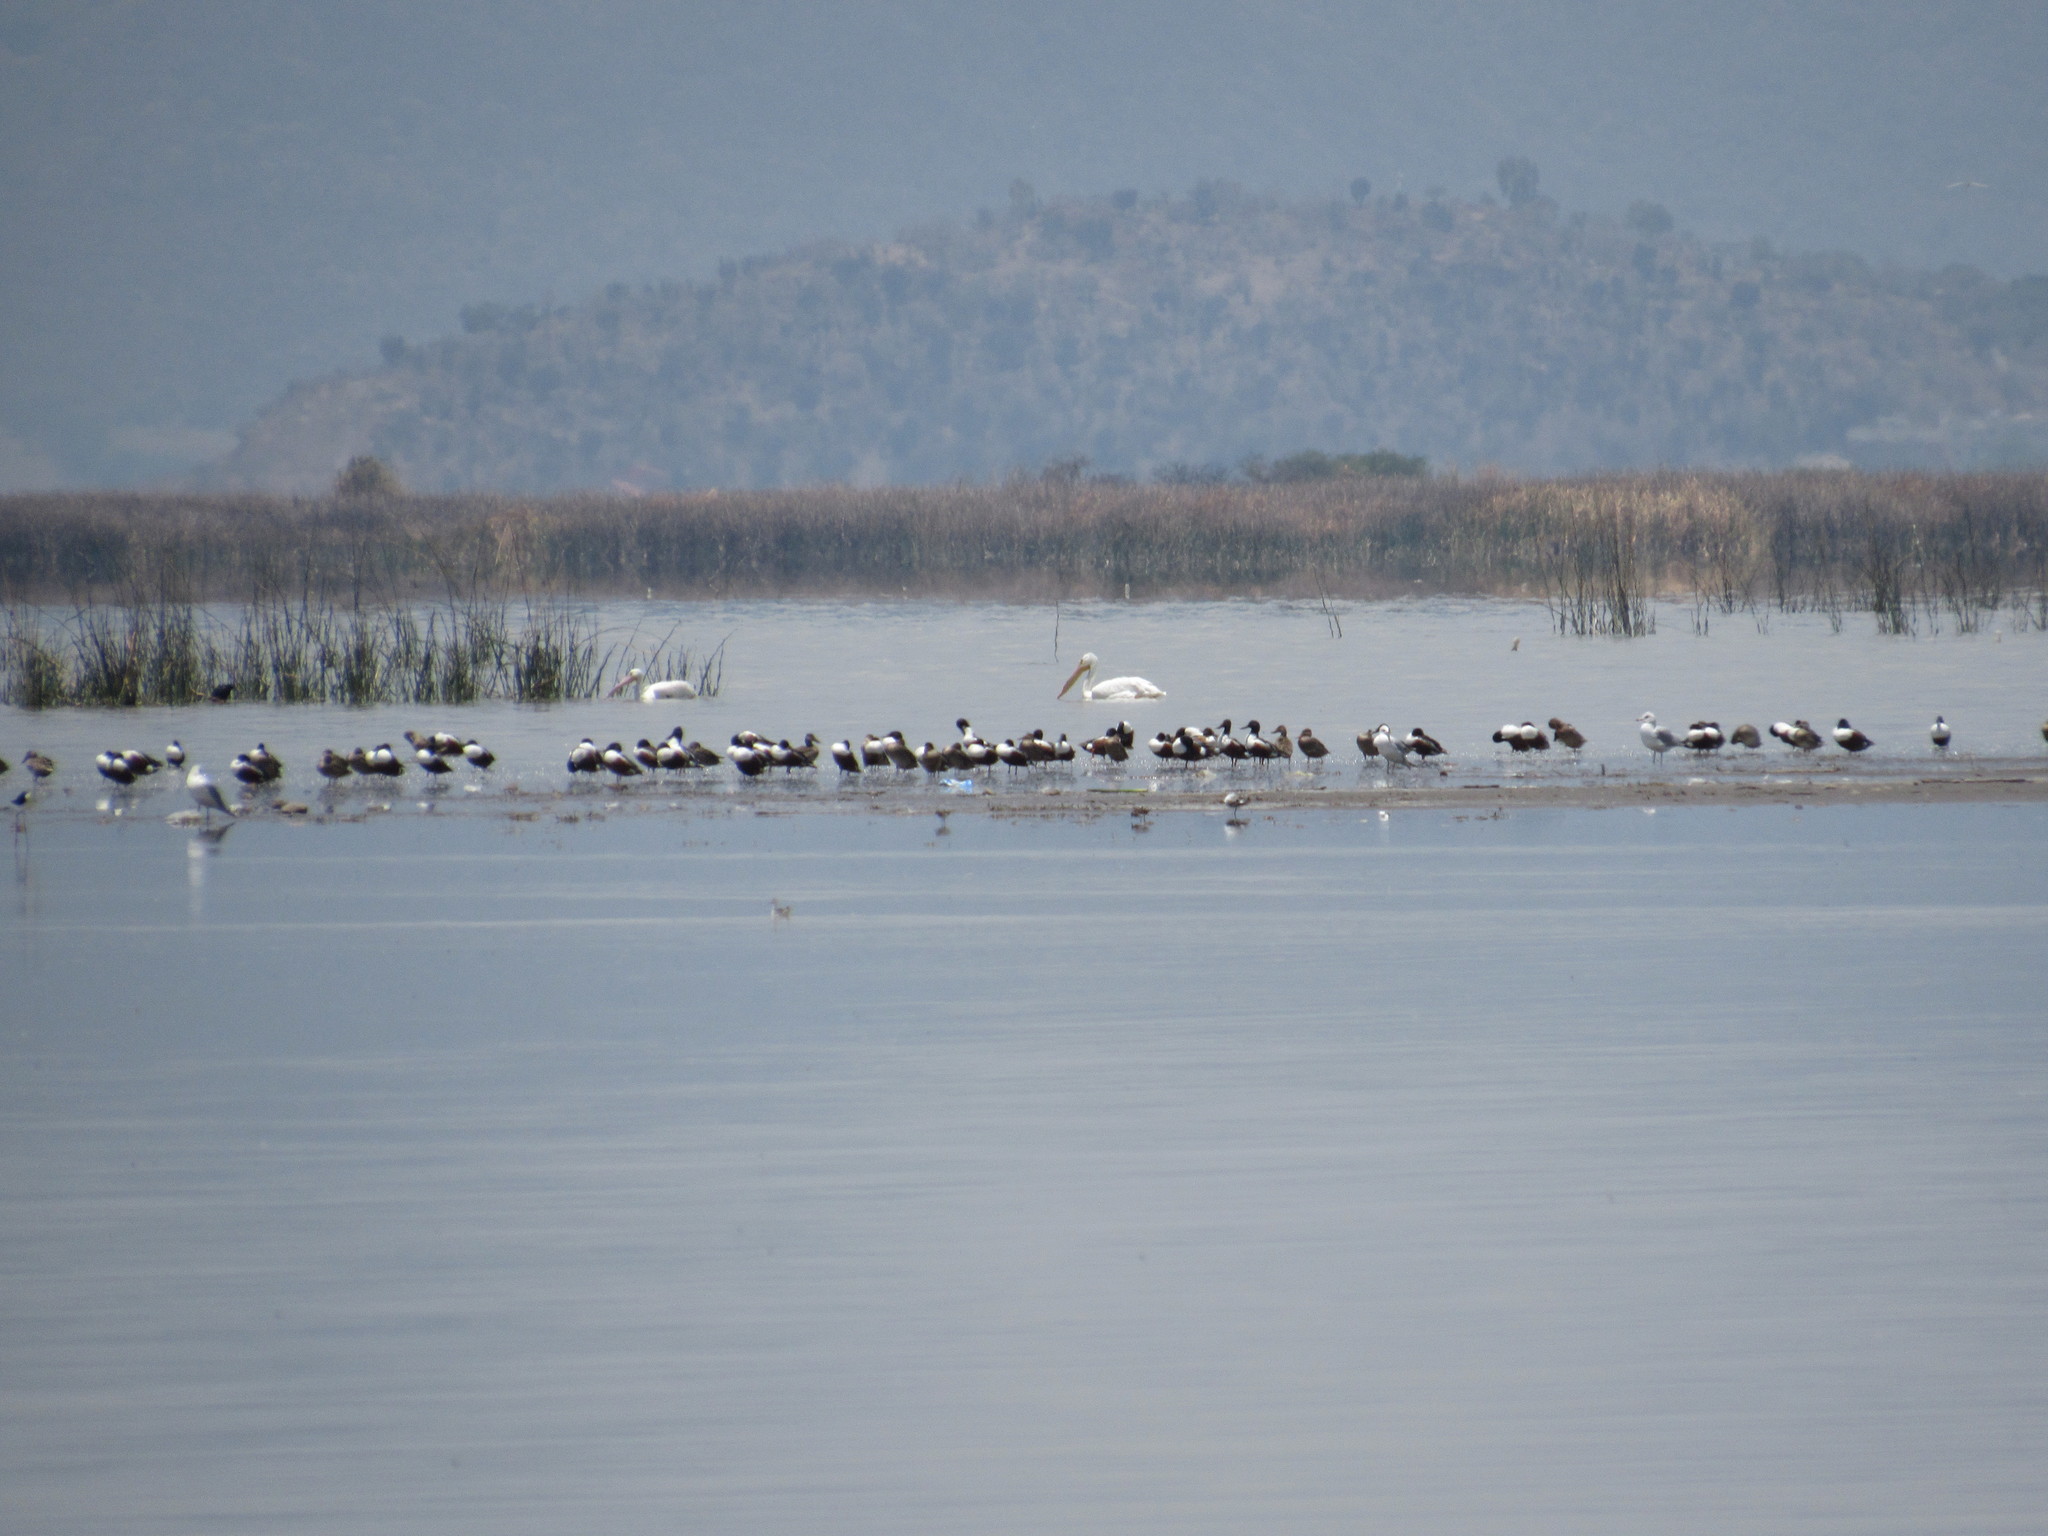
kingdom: Animalia
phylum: Chordata
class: Aves
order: Charadriiformes
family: Laridae
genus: Larus
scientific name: Larus delawarensis
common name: Ring-billed gull
